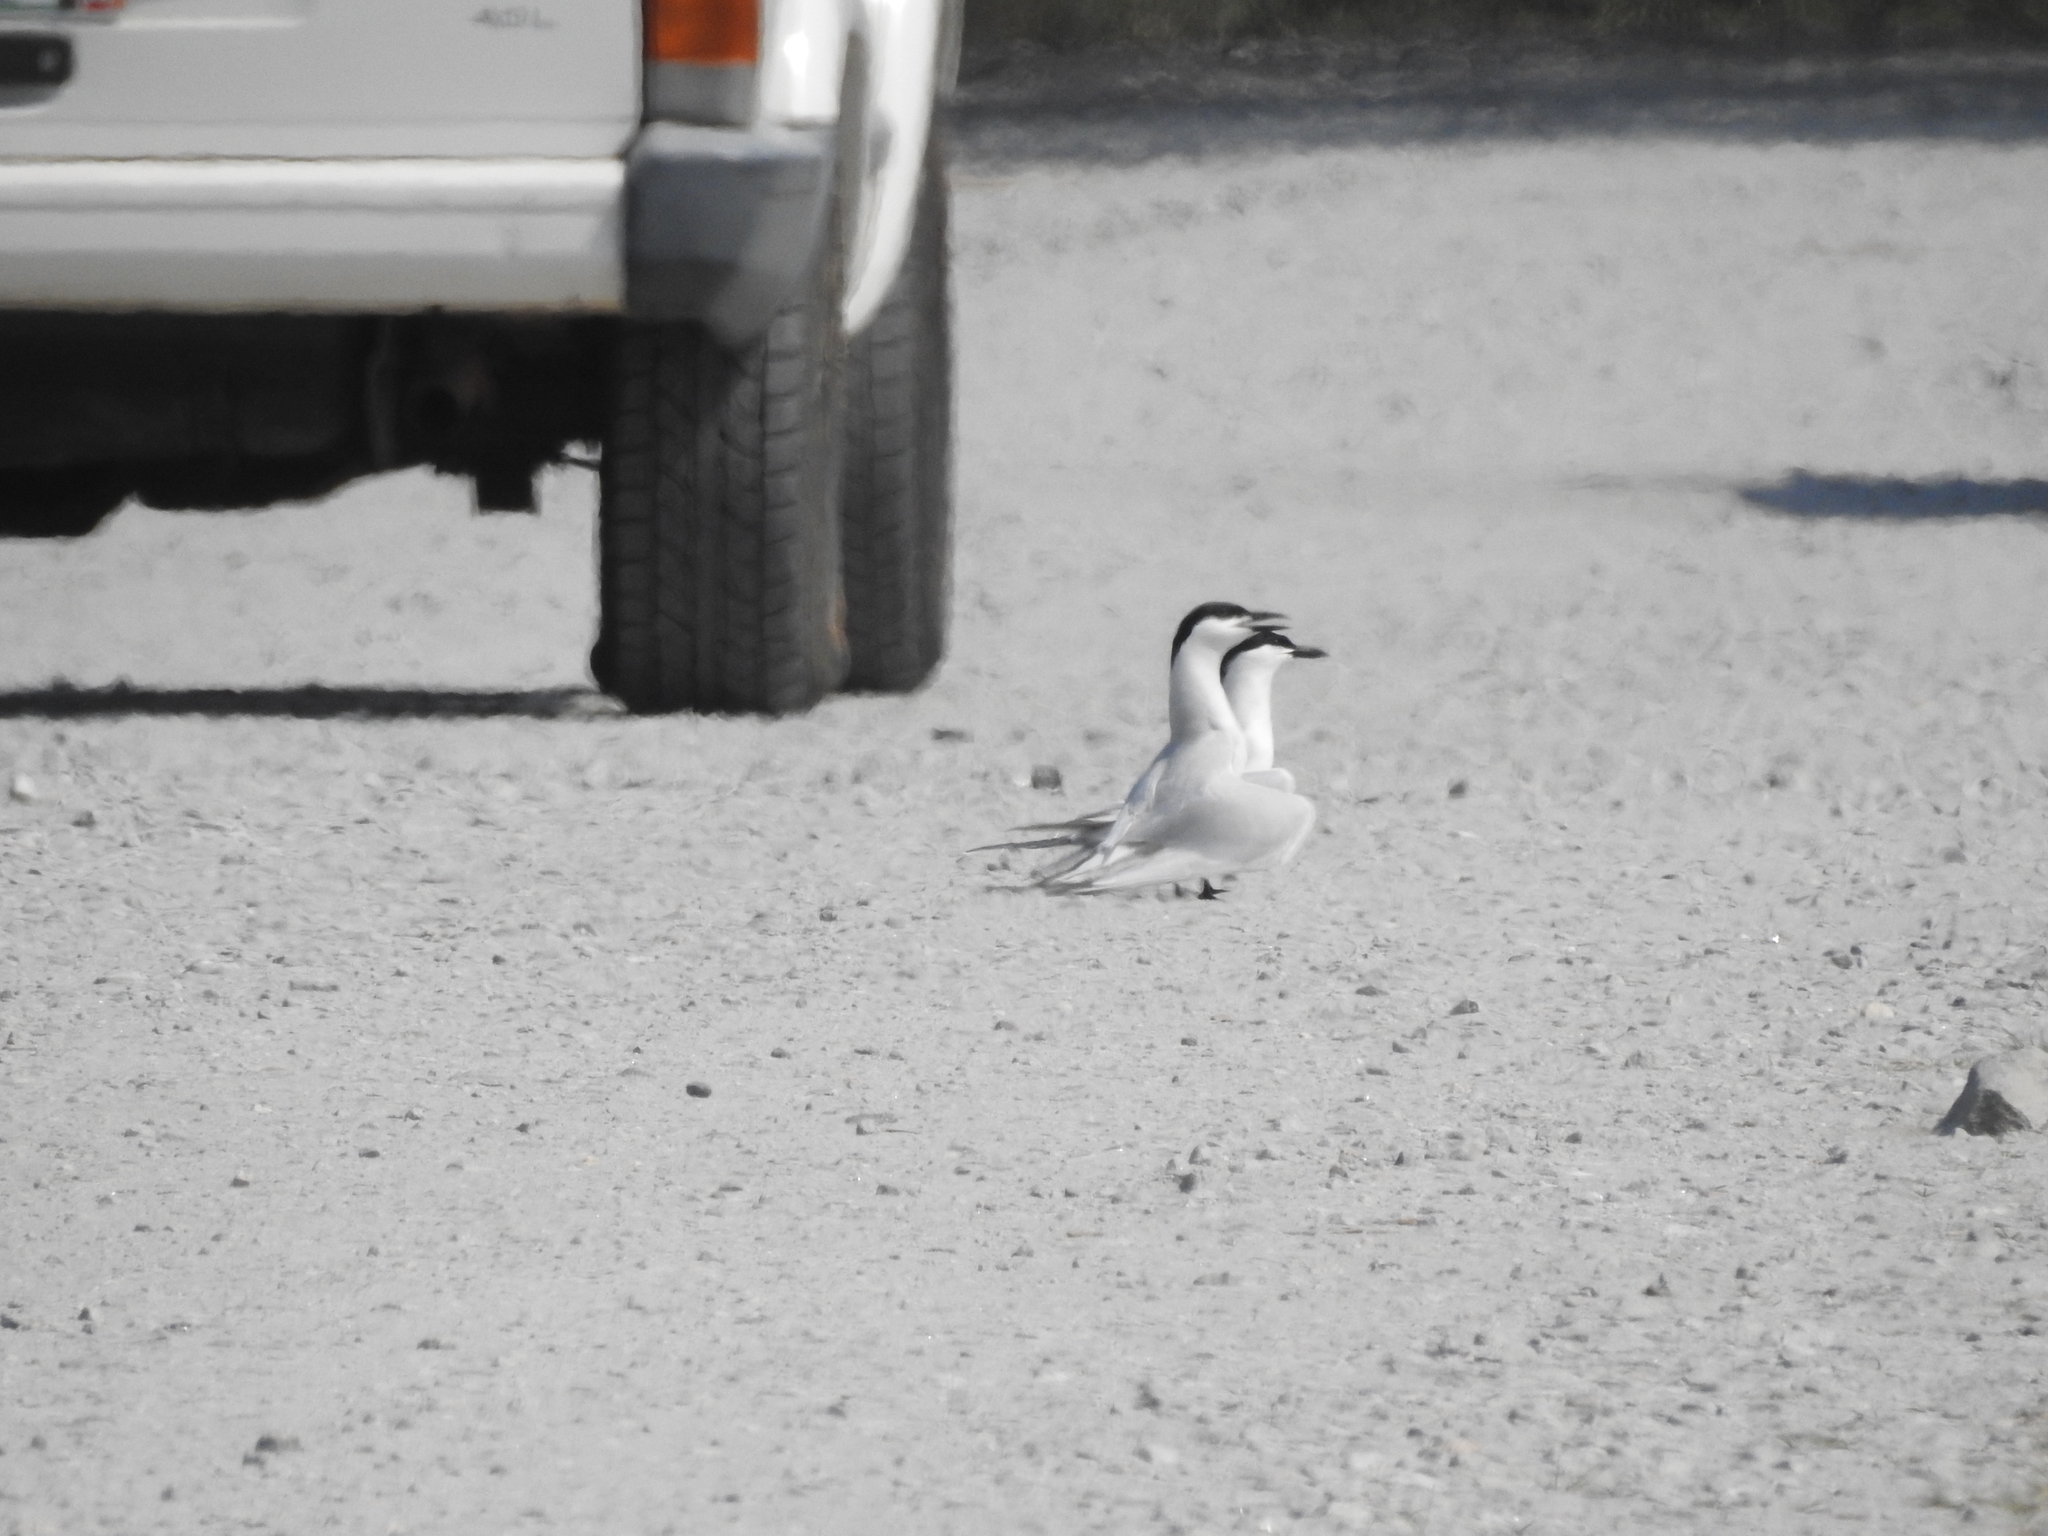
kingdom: Animalia
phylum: Chordata
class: Aves
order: Charadriiformes
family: Laridae
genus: Gelochelidon
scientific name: Gelochelidon nilotica
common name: Gull-billed tern
